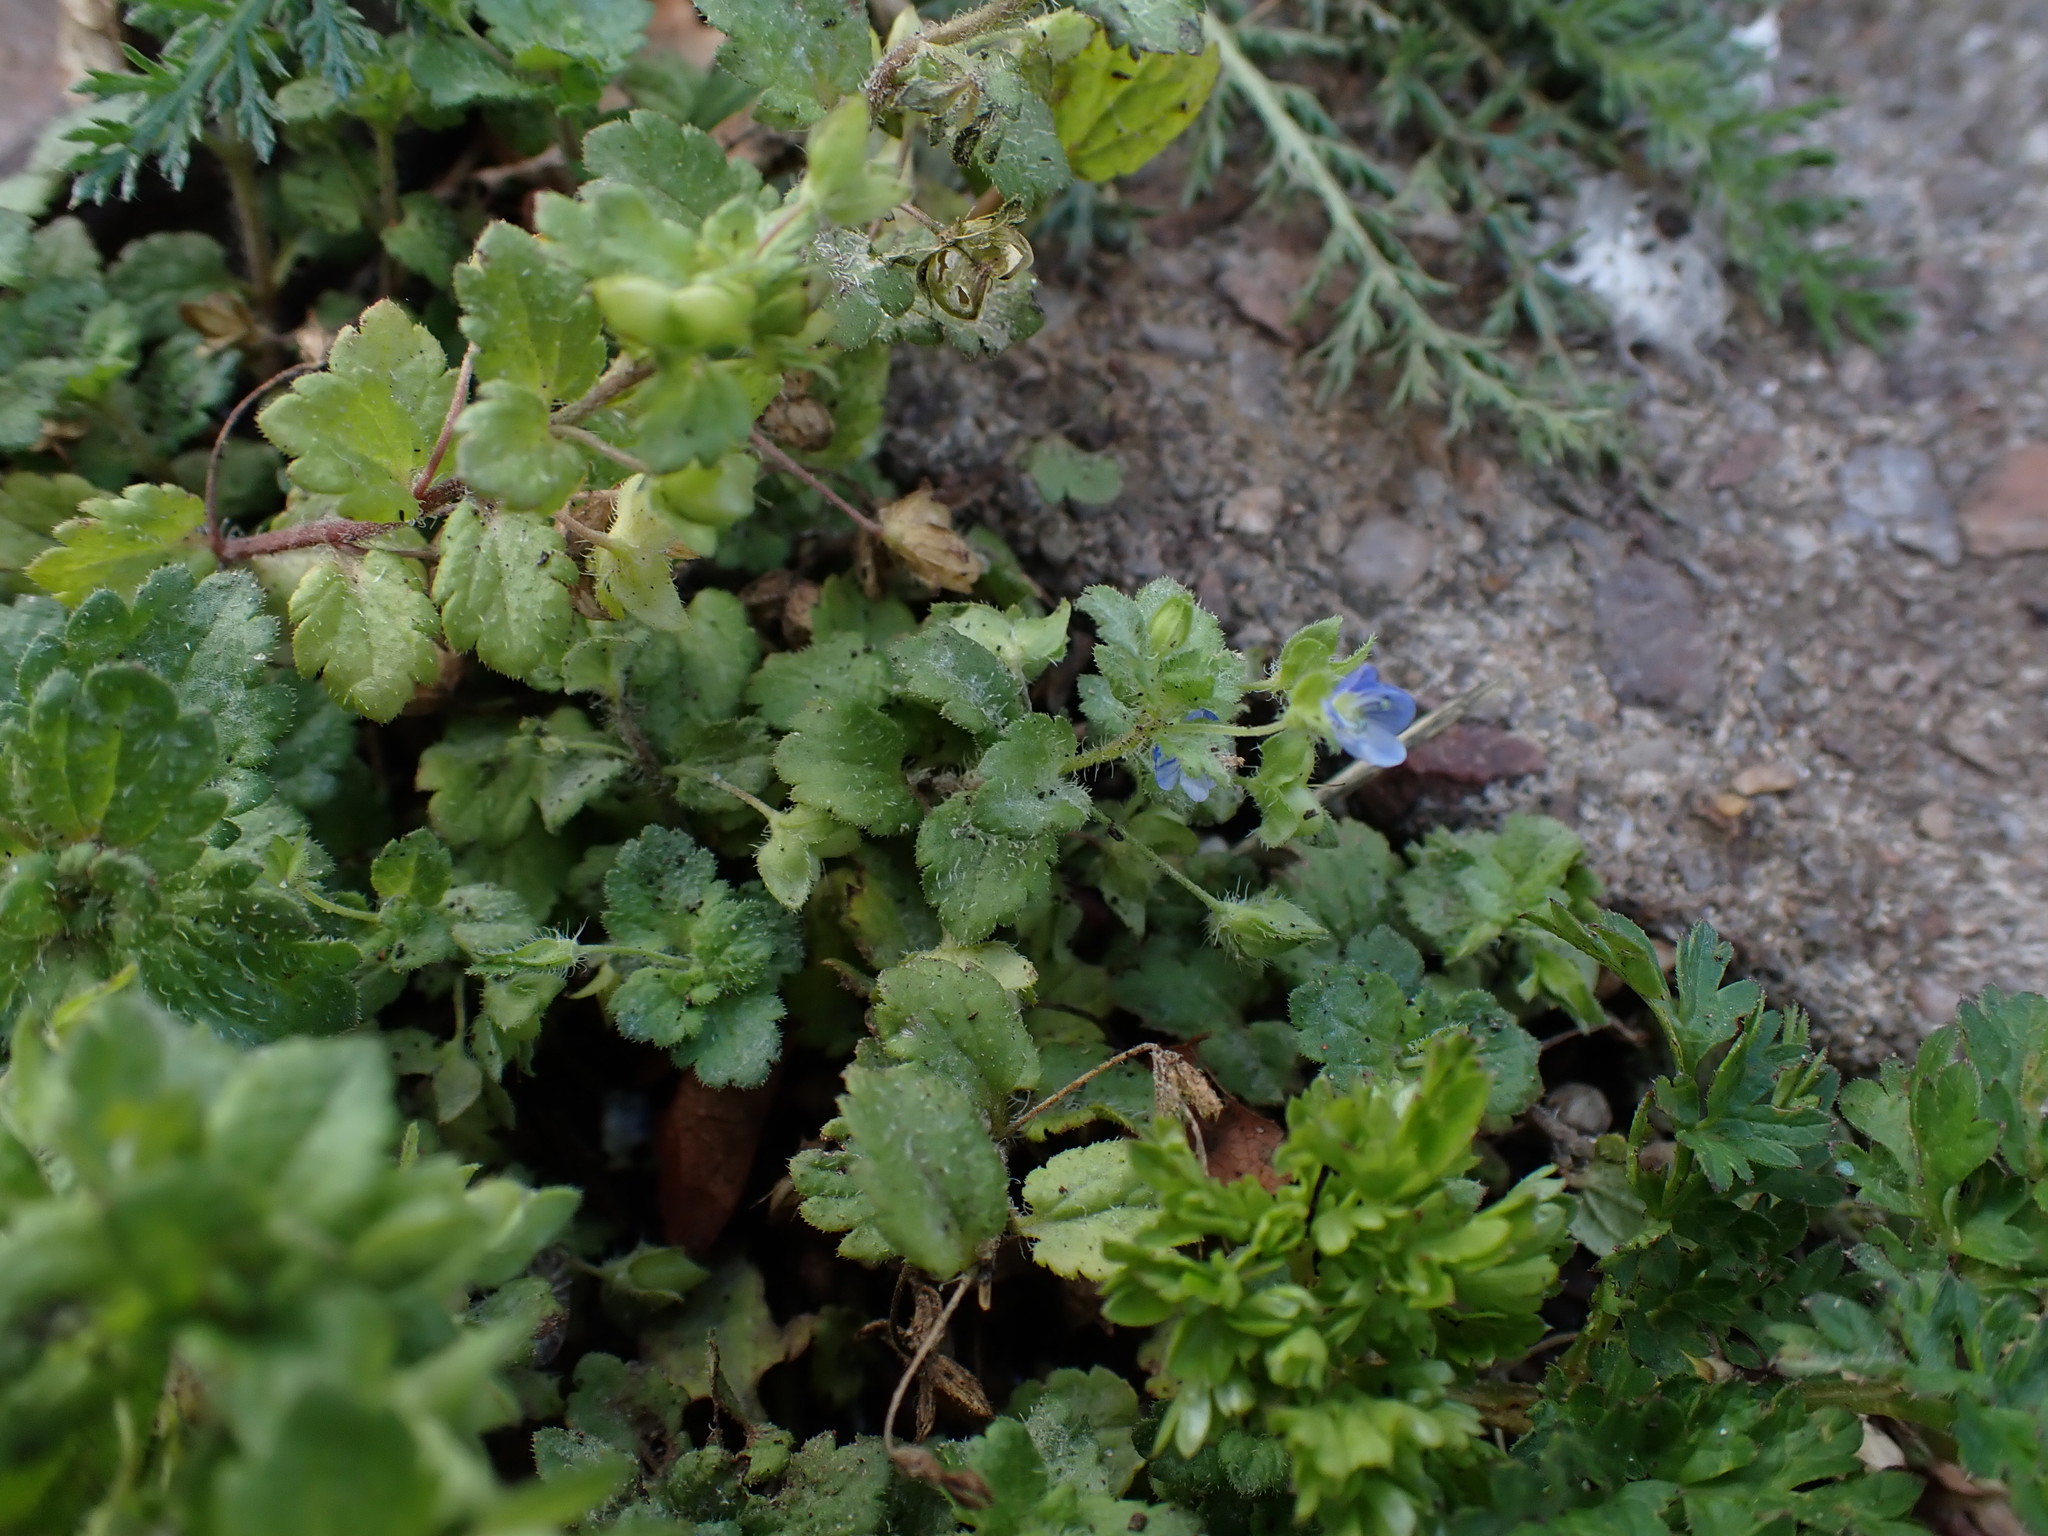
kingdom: Plantae
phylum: Tracheophyta
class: Magnoliopsida
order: Lamiales
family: Plantaginaceae
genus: Veronica
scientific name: Veronica persica
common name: Common field-speedwell
